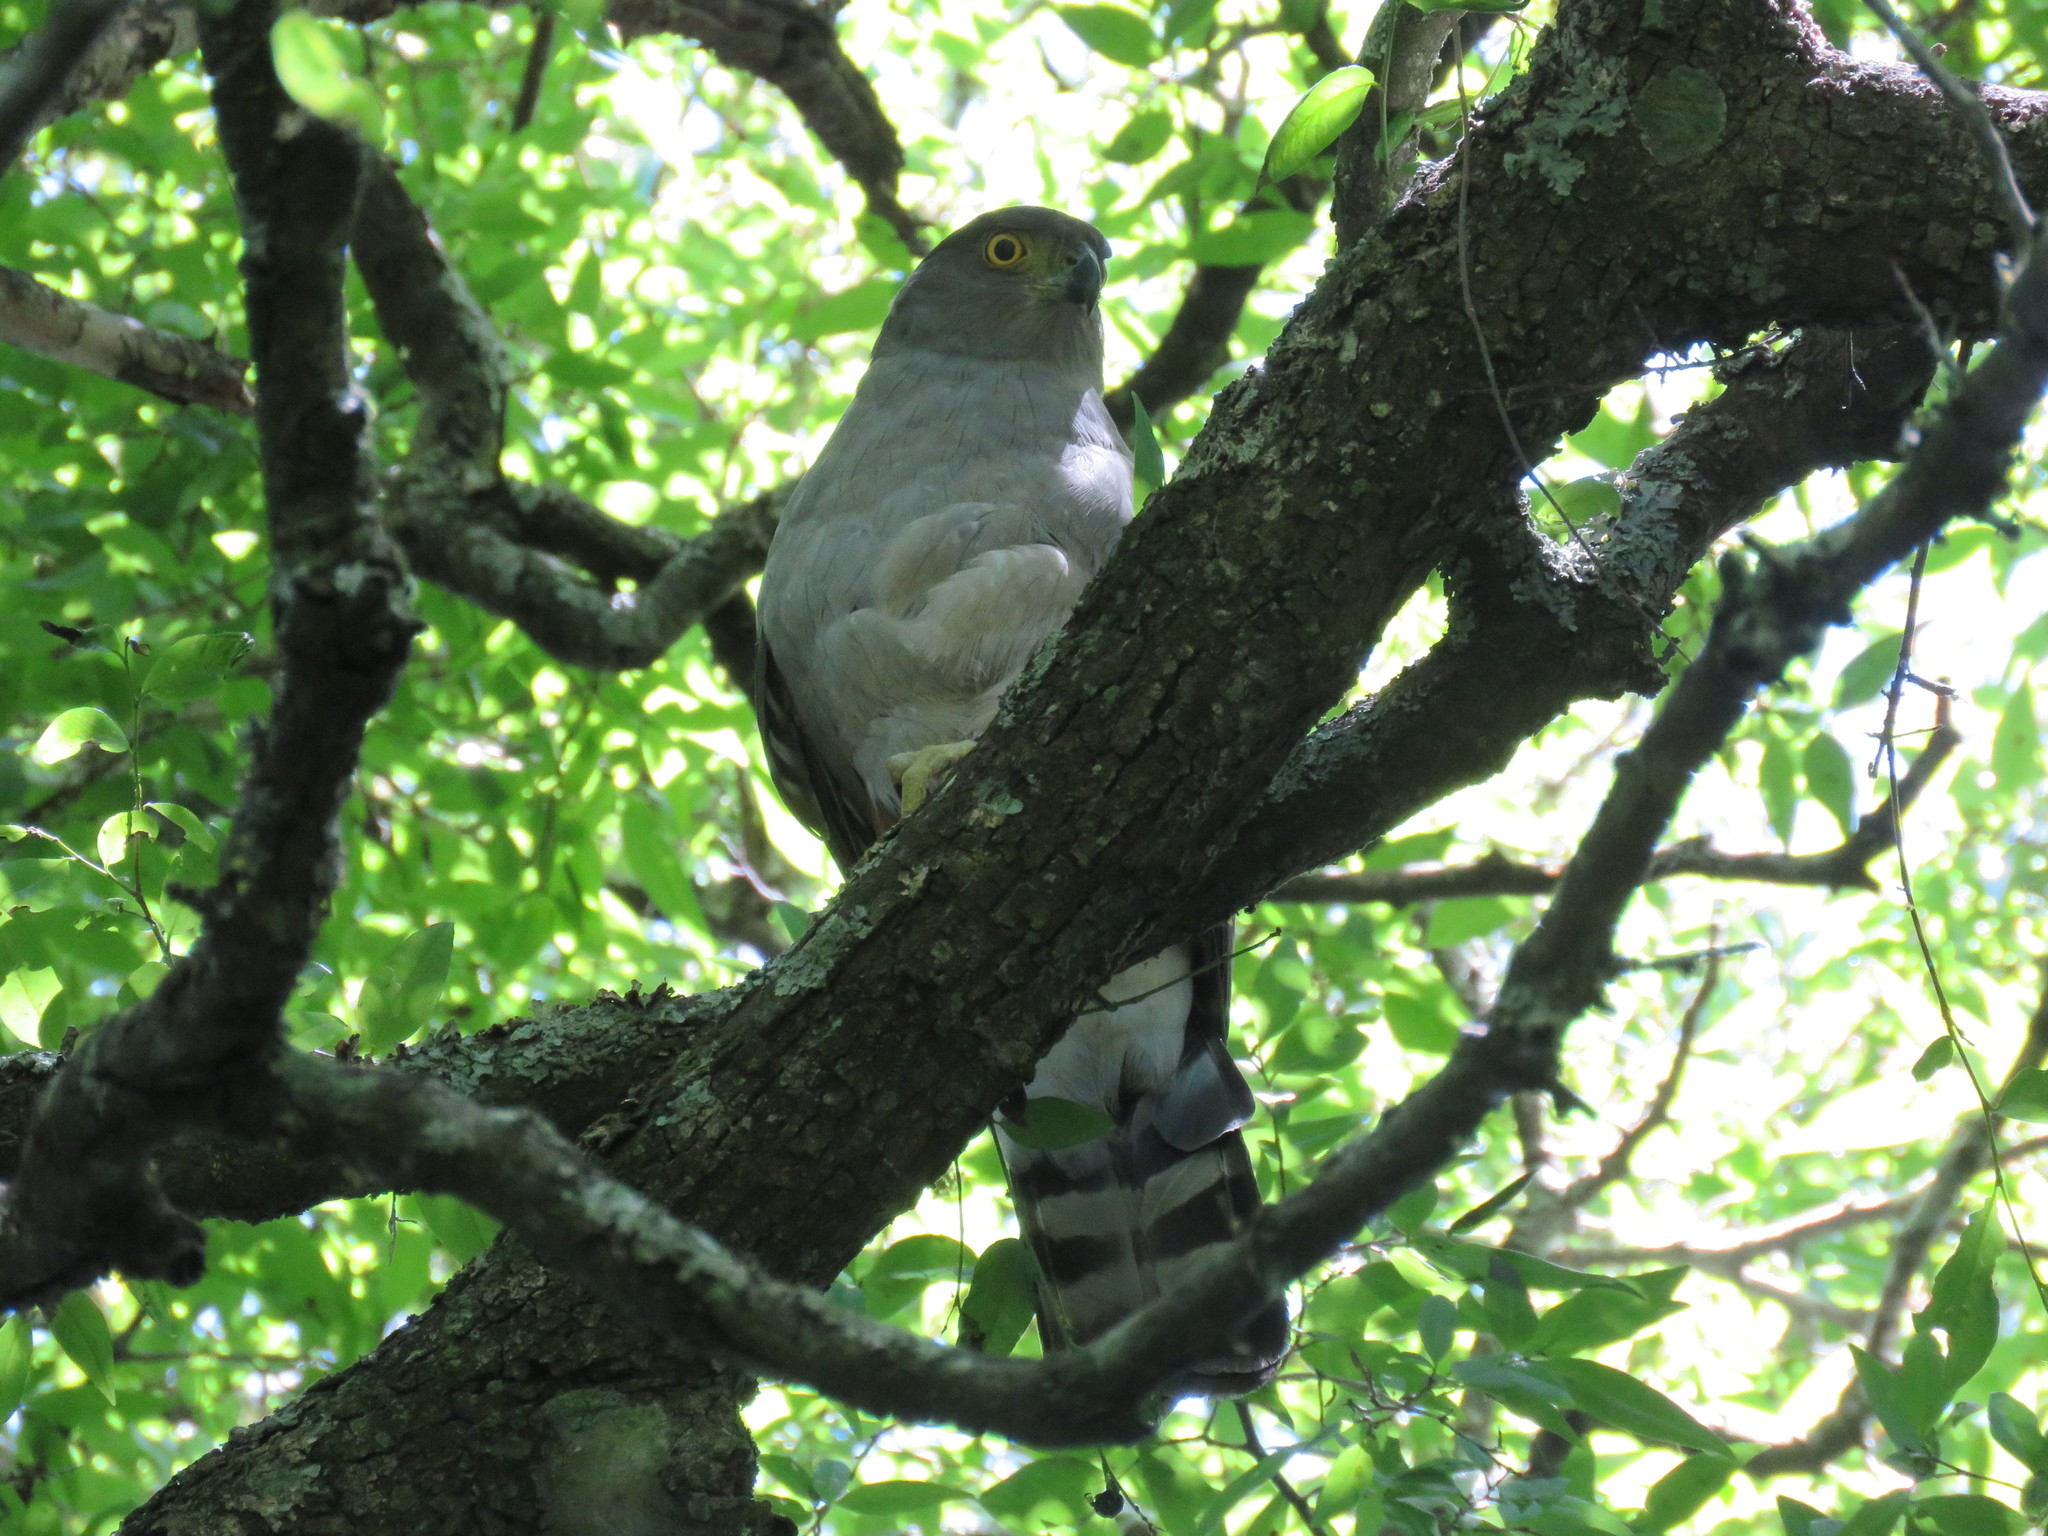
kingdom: Animalia
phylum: Chordata
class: Aves
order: Accipitriformes
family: Accipitridae
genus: Accipiter
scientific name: Accipiter bicolor
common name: Bicolored hawk
